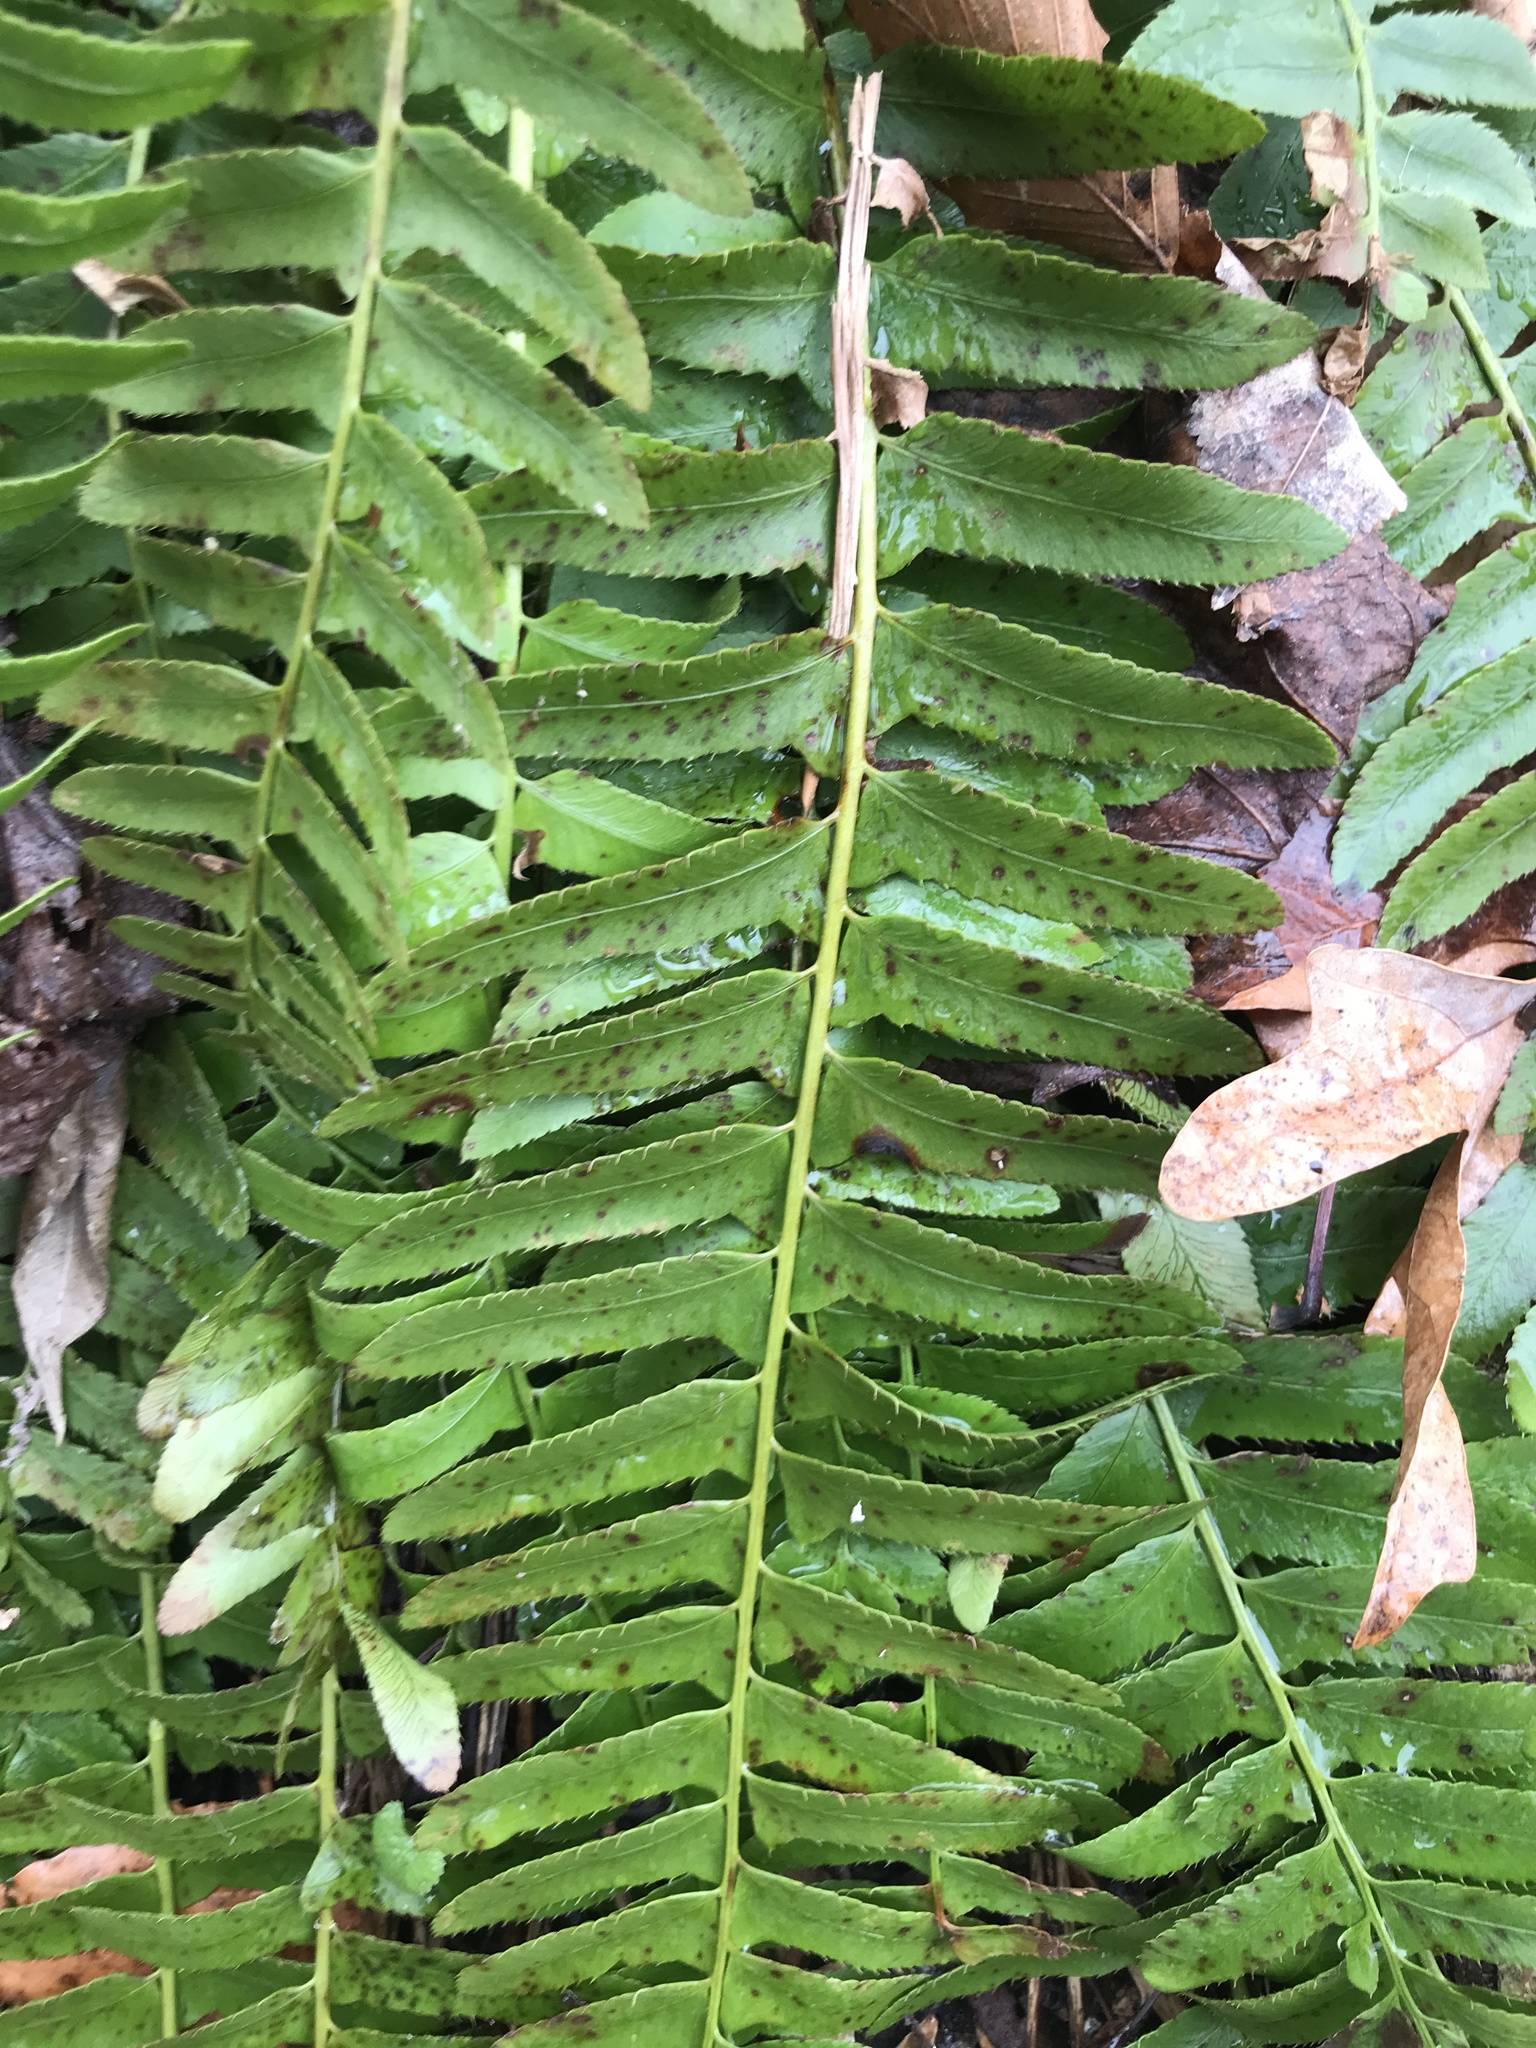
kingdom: Plantae
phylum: Tracheophyta
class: Polypodiopsida
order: Polypodiales
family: Dryopteridaceae
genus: Polystichum
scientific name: Polystichum acrostichoides
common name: Christmas fern
